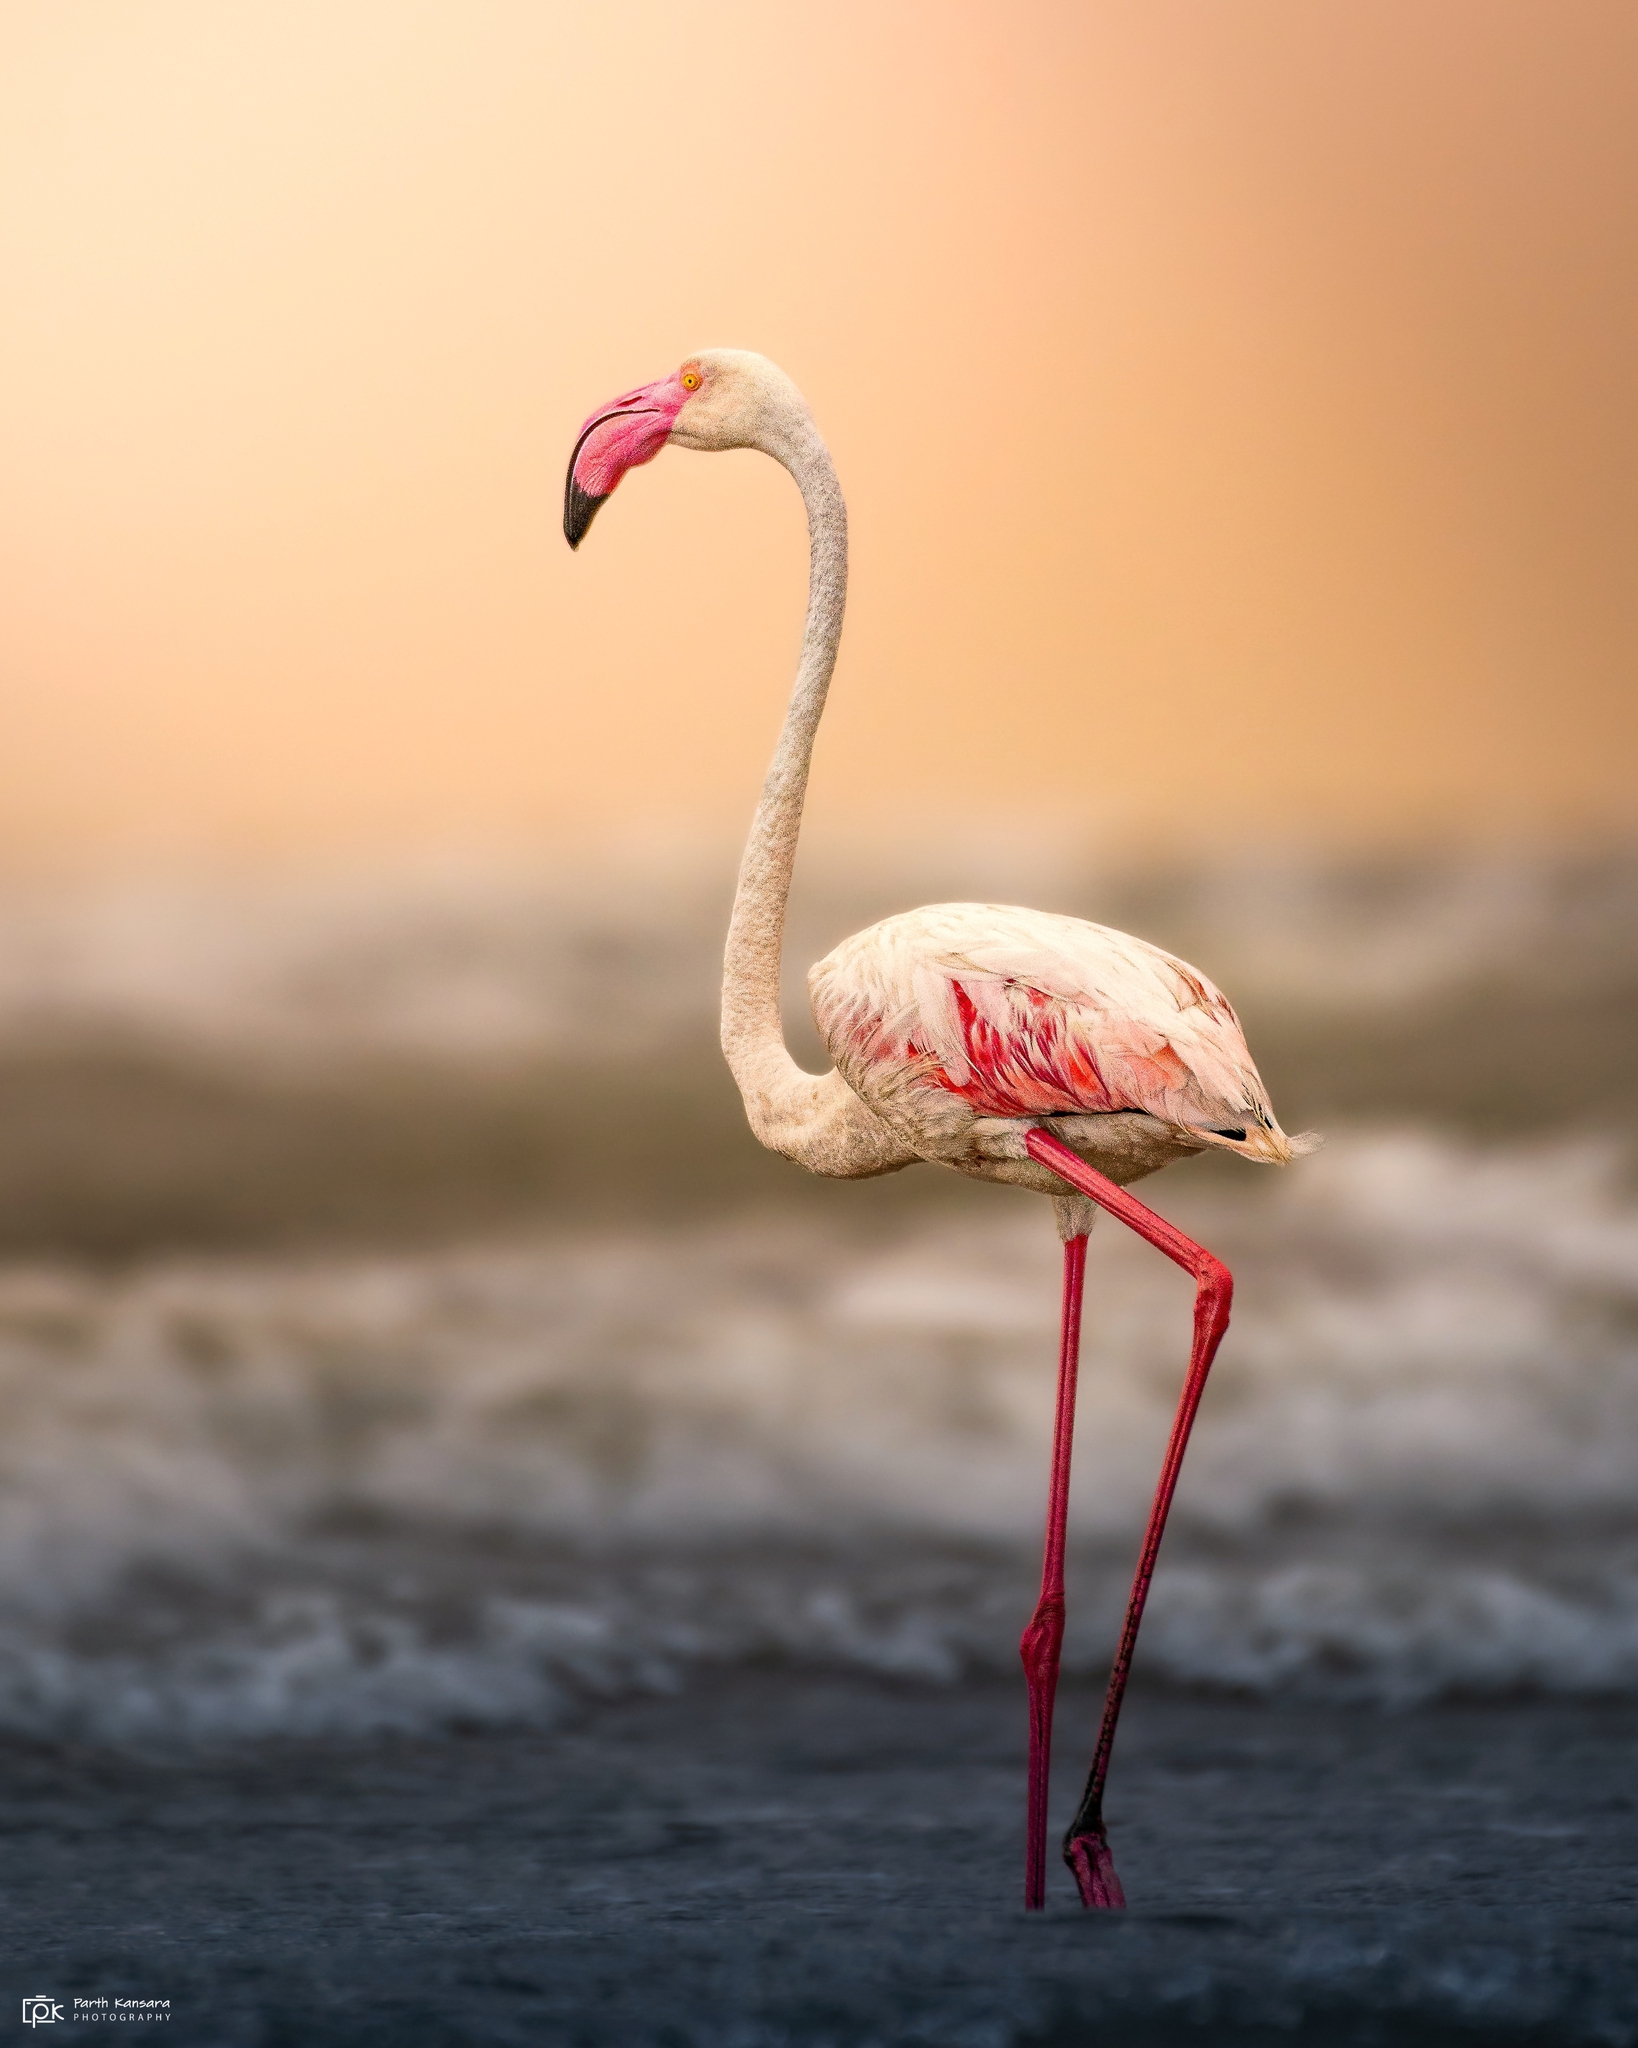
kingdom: Animalia
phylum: Chordata
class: Aves
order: Phoenicopteriformes
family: Phoenicopteridae
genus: Phoenicopterus
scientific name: Phoenicopterus roseus
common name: Greater flamingo
